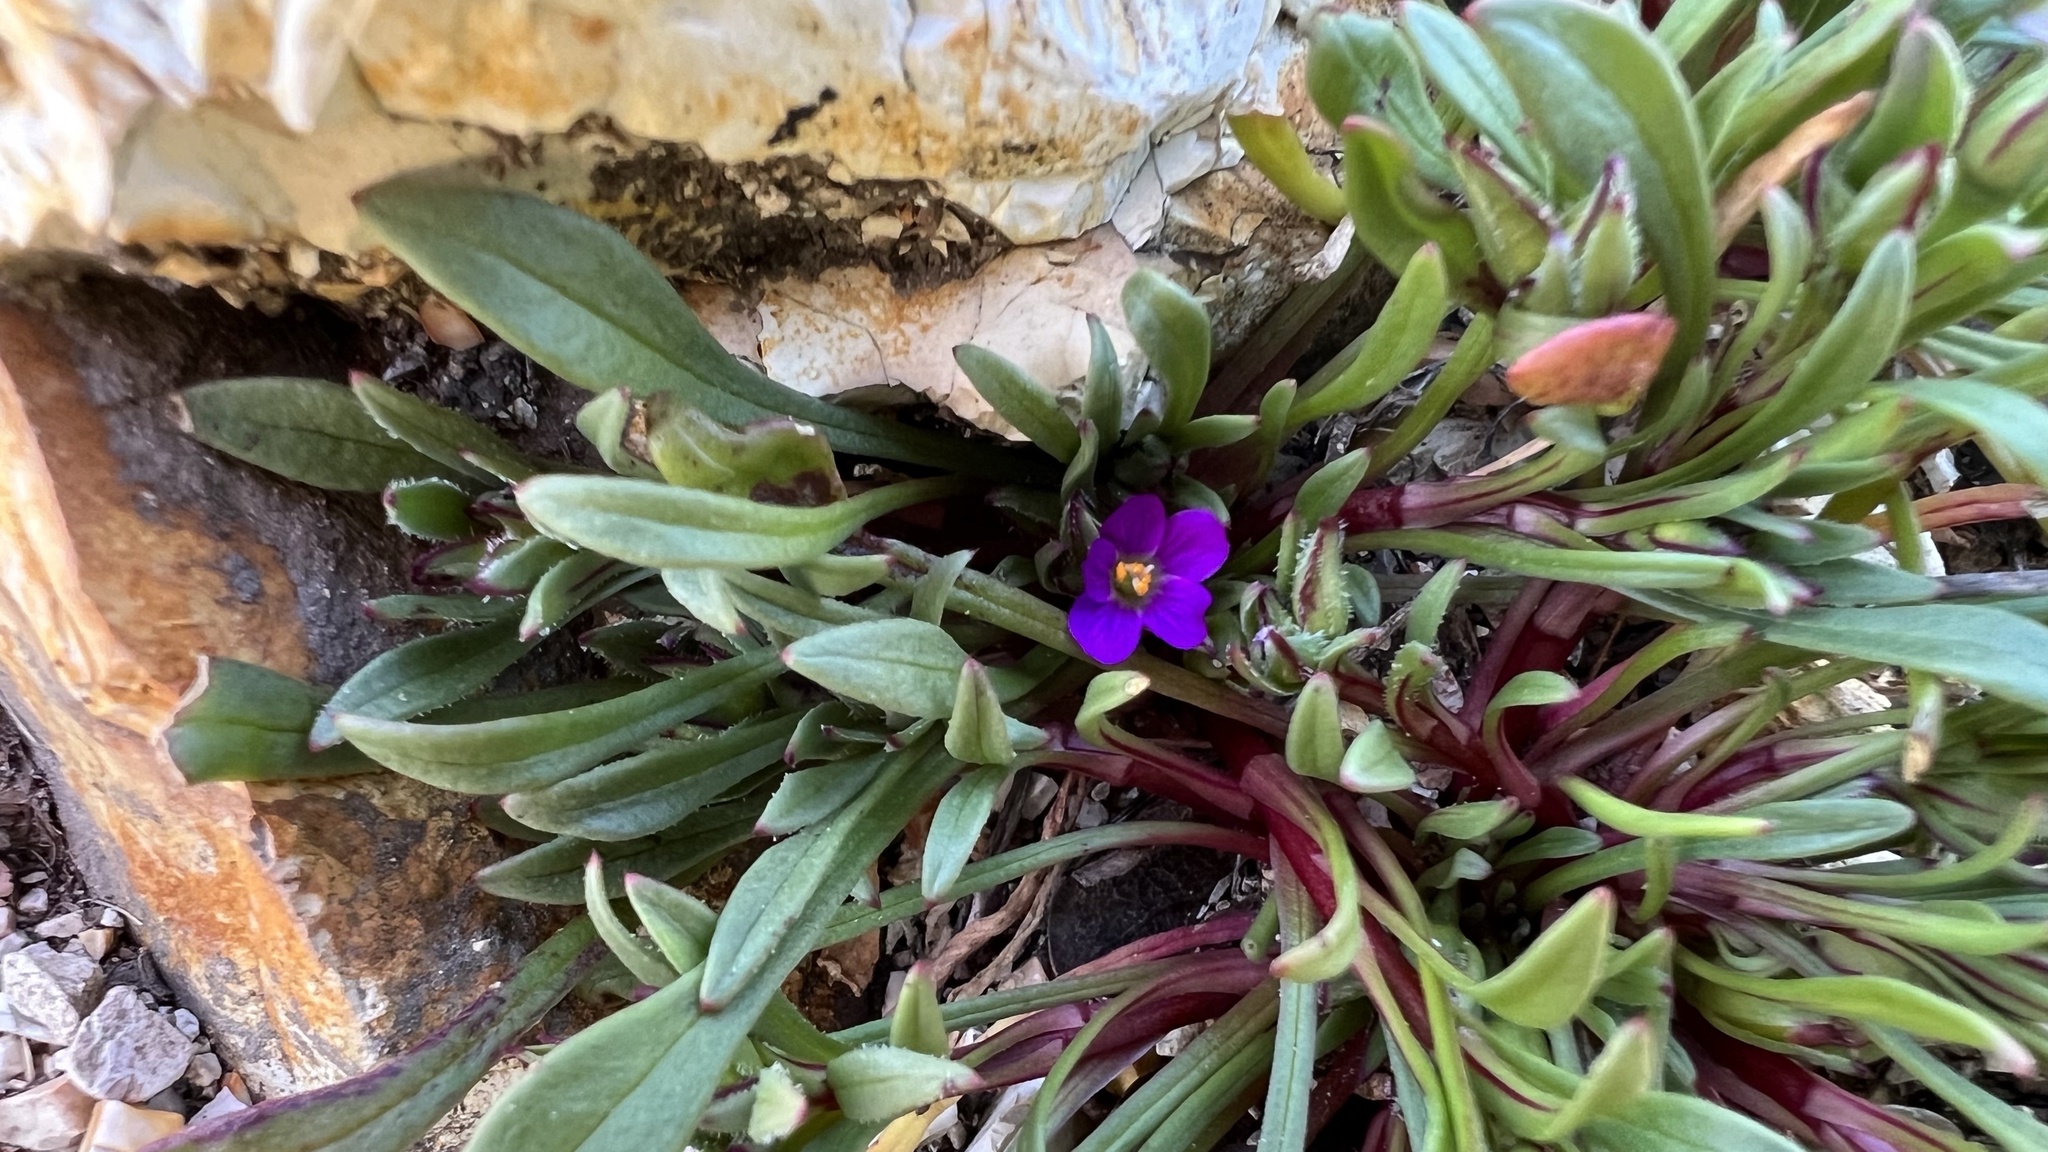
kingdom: Plantae
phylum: Tracheophyta
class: Magnoliopsida
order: Caryophyllales
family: Montiaceae
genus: Calandrinia
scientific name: Calandrinia menziesii
